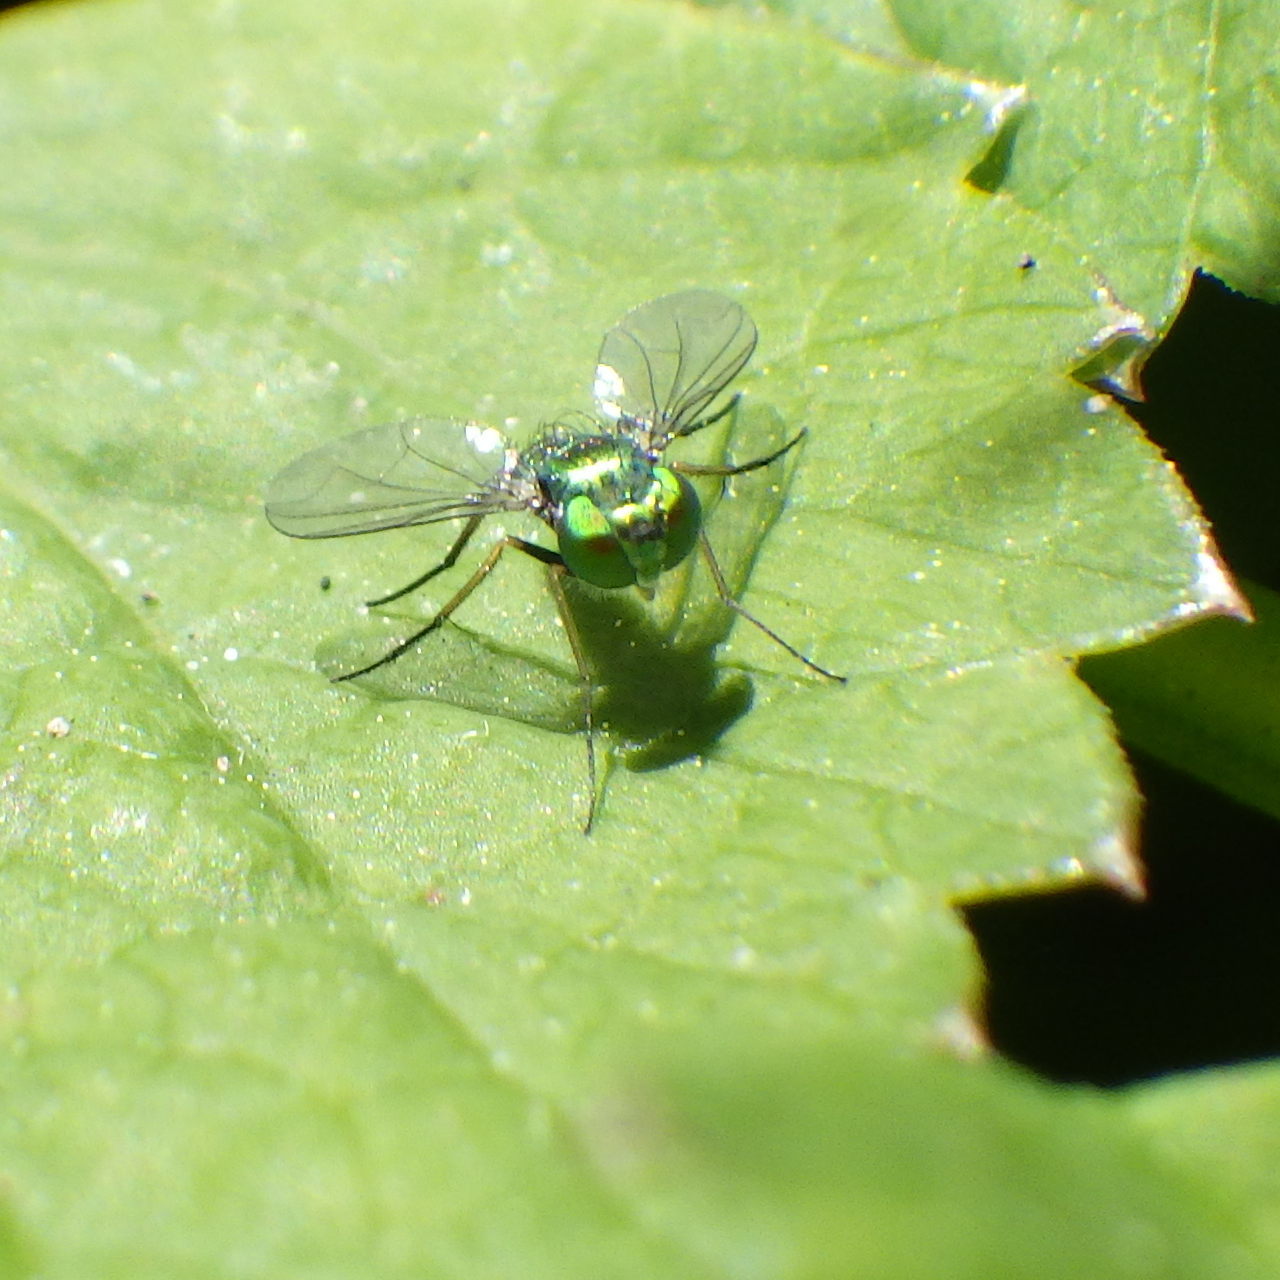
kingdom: Animalia
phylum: Arthropoda
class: Insecta
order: Diptera
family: Dolichopodidae
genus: Condylostylus
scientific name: Condylostylus connectans
